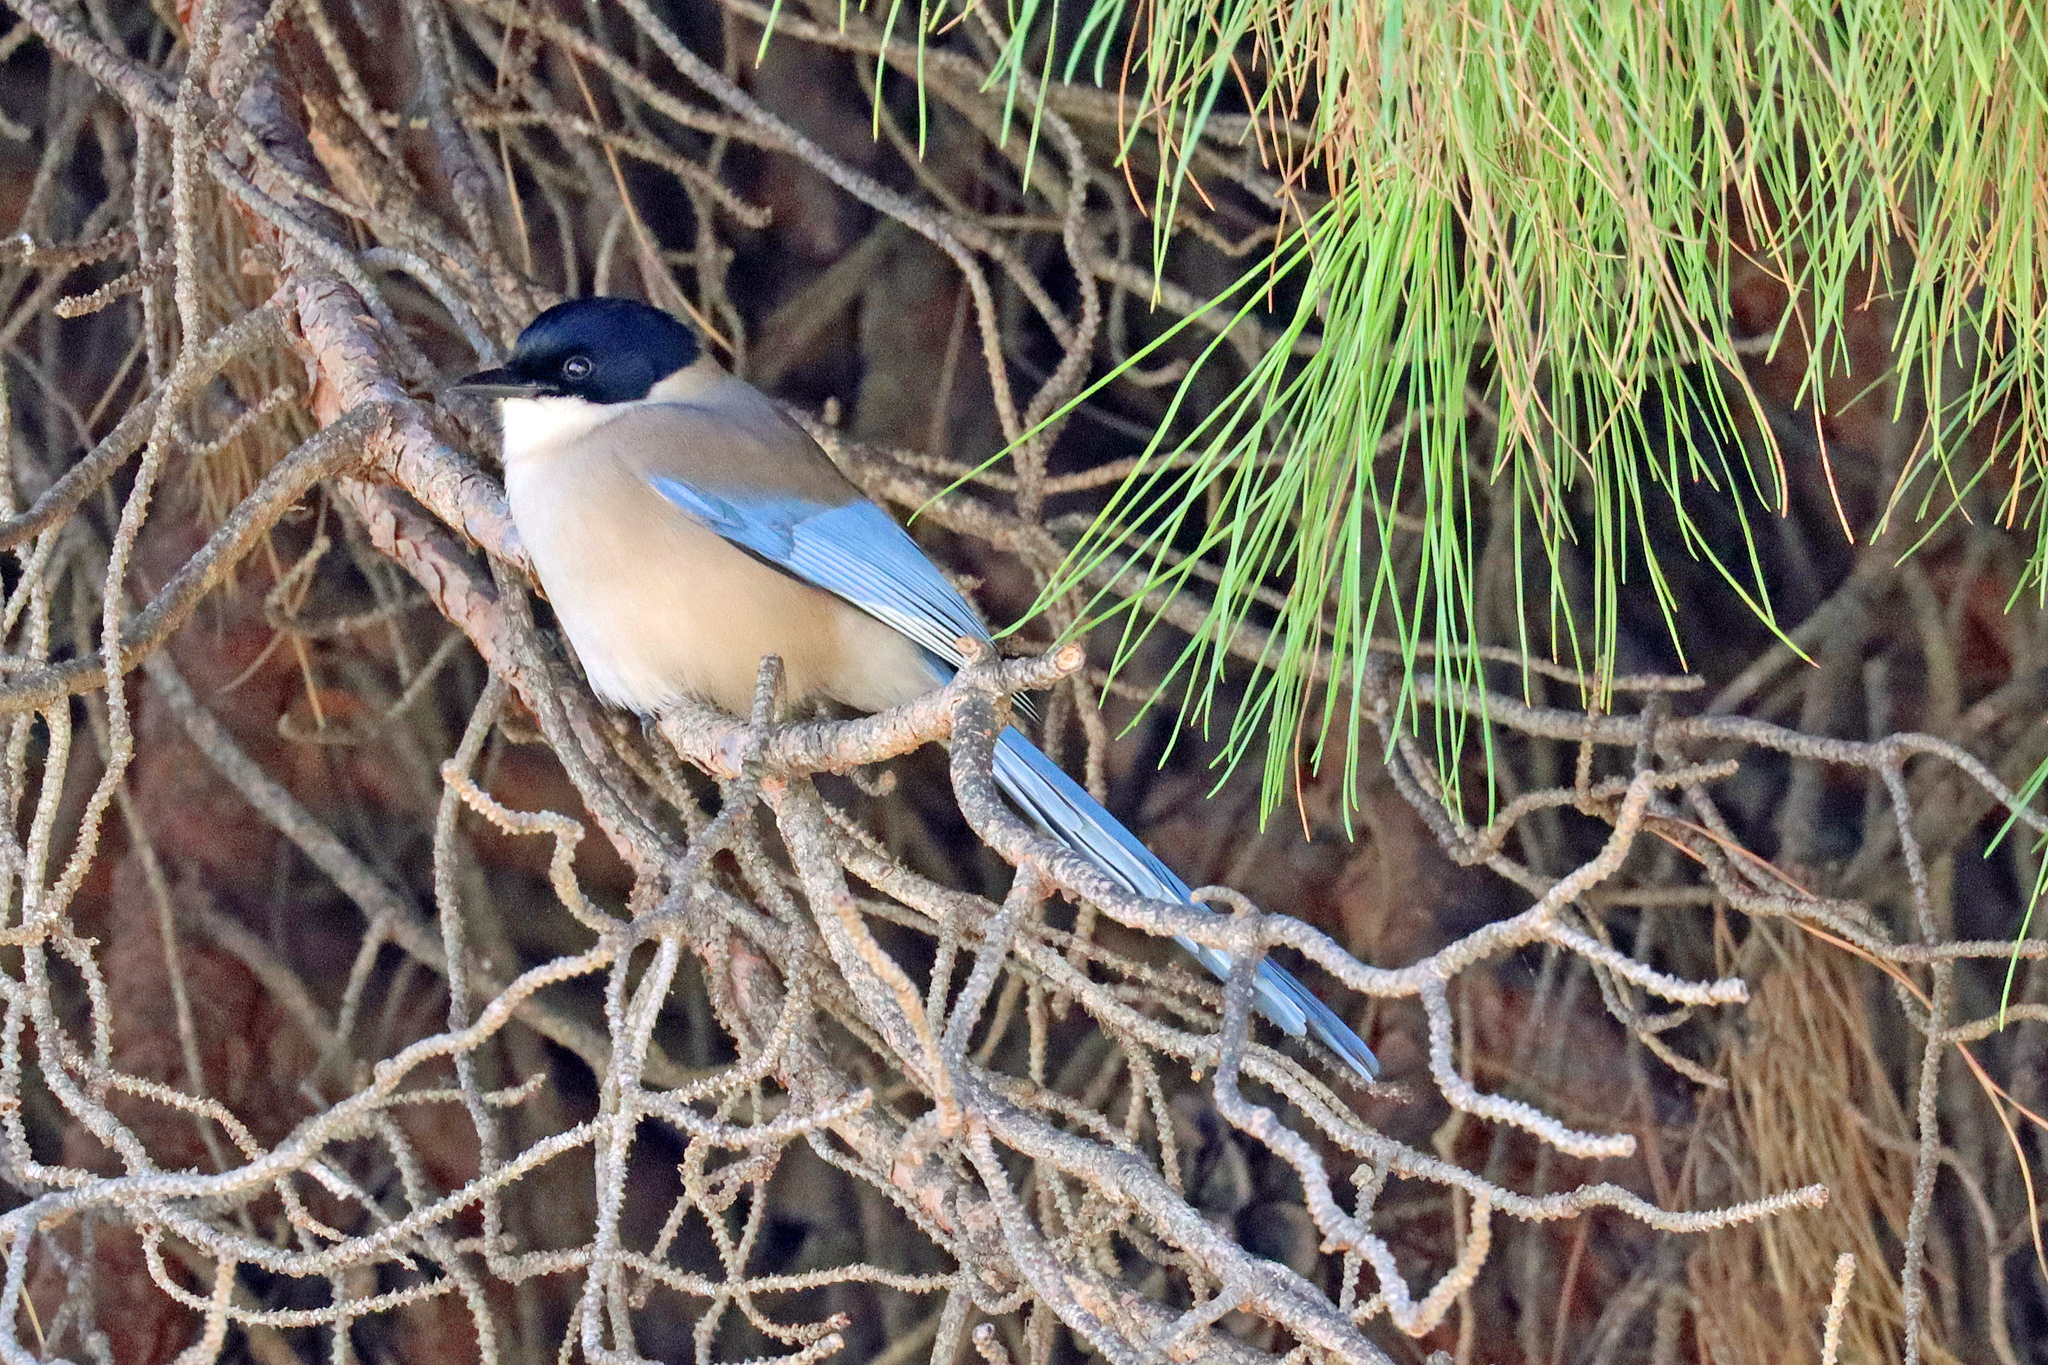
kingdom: Animalia
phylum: Chordata
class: Aves
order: Passeriformes
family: Corvidae
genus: Cyanopica
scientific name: Cyanopica cooki
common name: Iberian magpie
